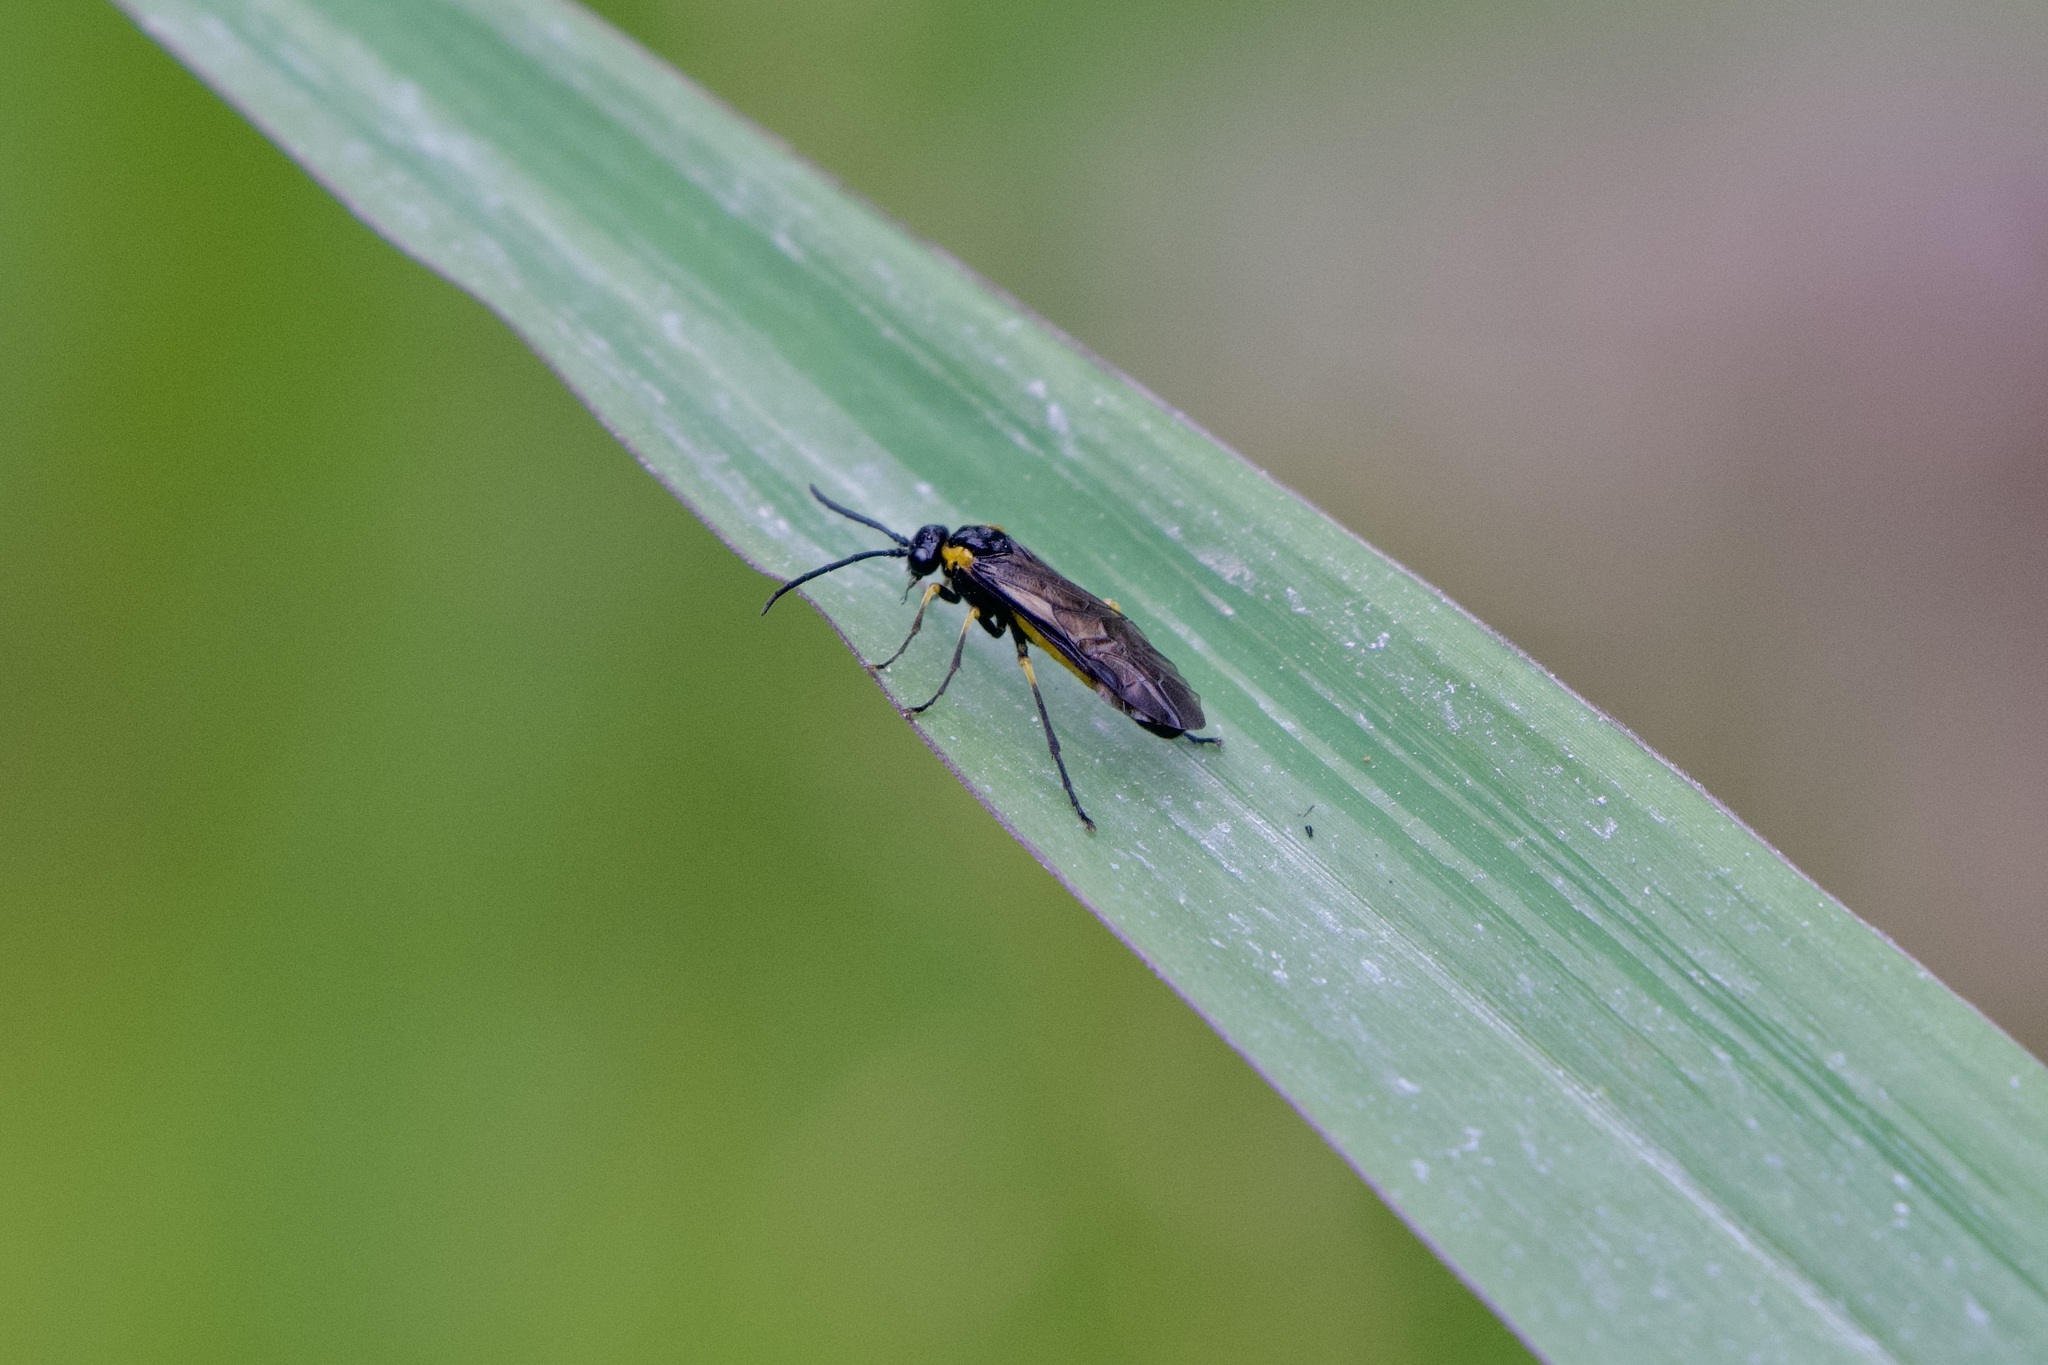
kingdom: Animalia
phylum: Arthropoda
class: Insecta
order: Hymenoptera
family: Tenthredinidae
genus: Andeana
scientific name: Andeana farcta
